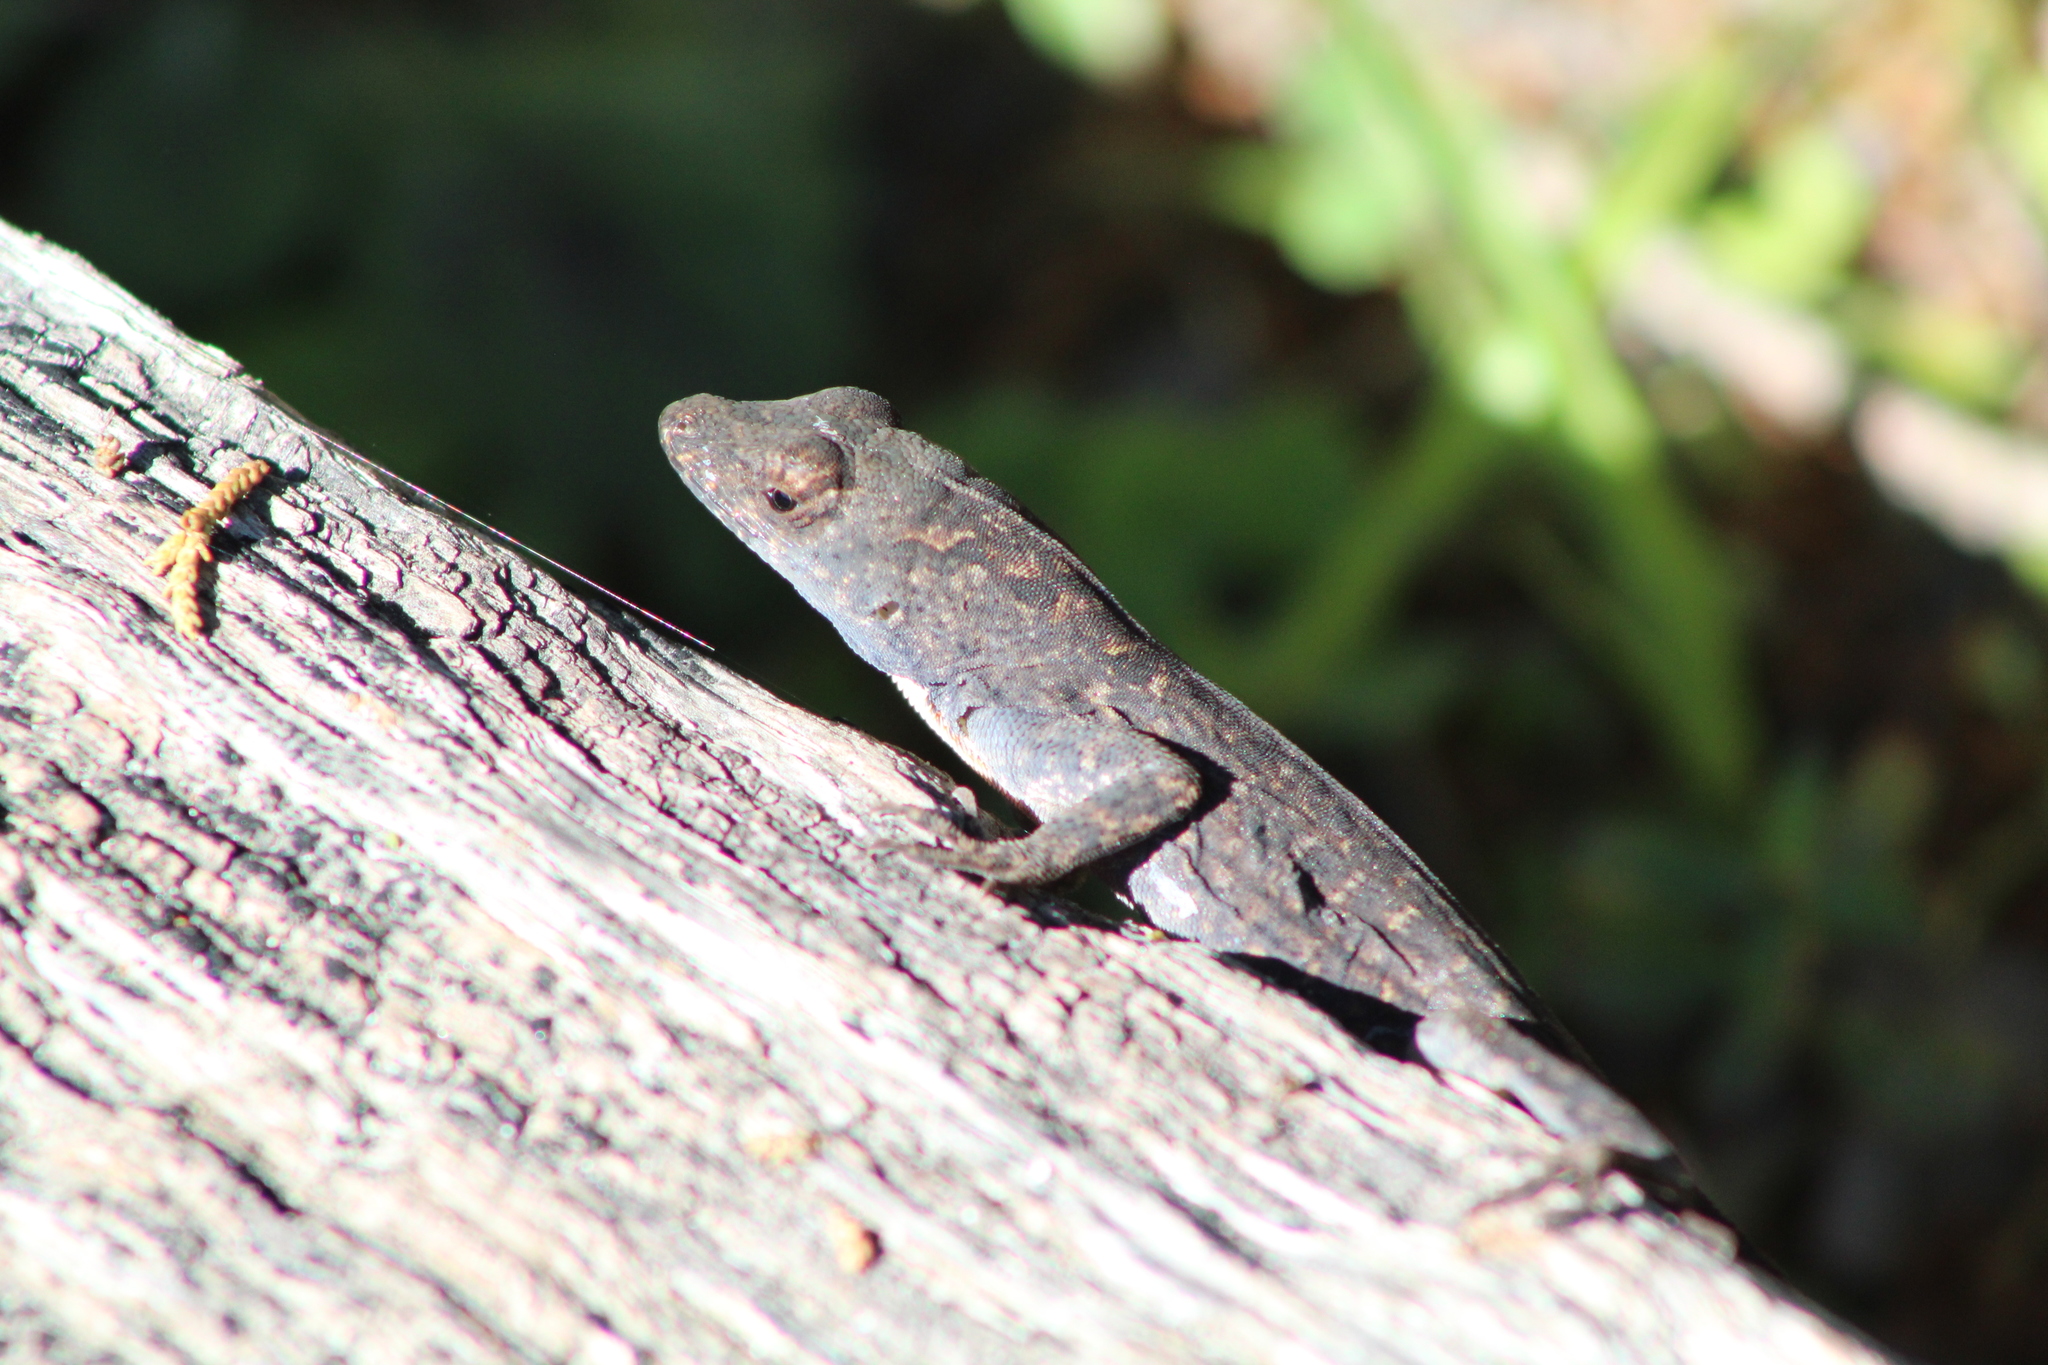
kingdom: Animalia
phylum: Chordata
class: Squamata
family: Dactyloidae
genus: Anolis
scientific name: Anolis sagrei
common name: Brown anole
